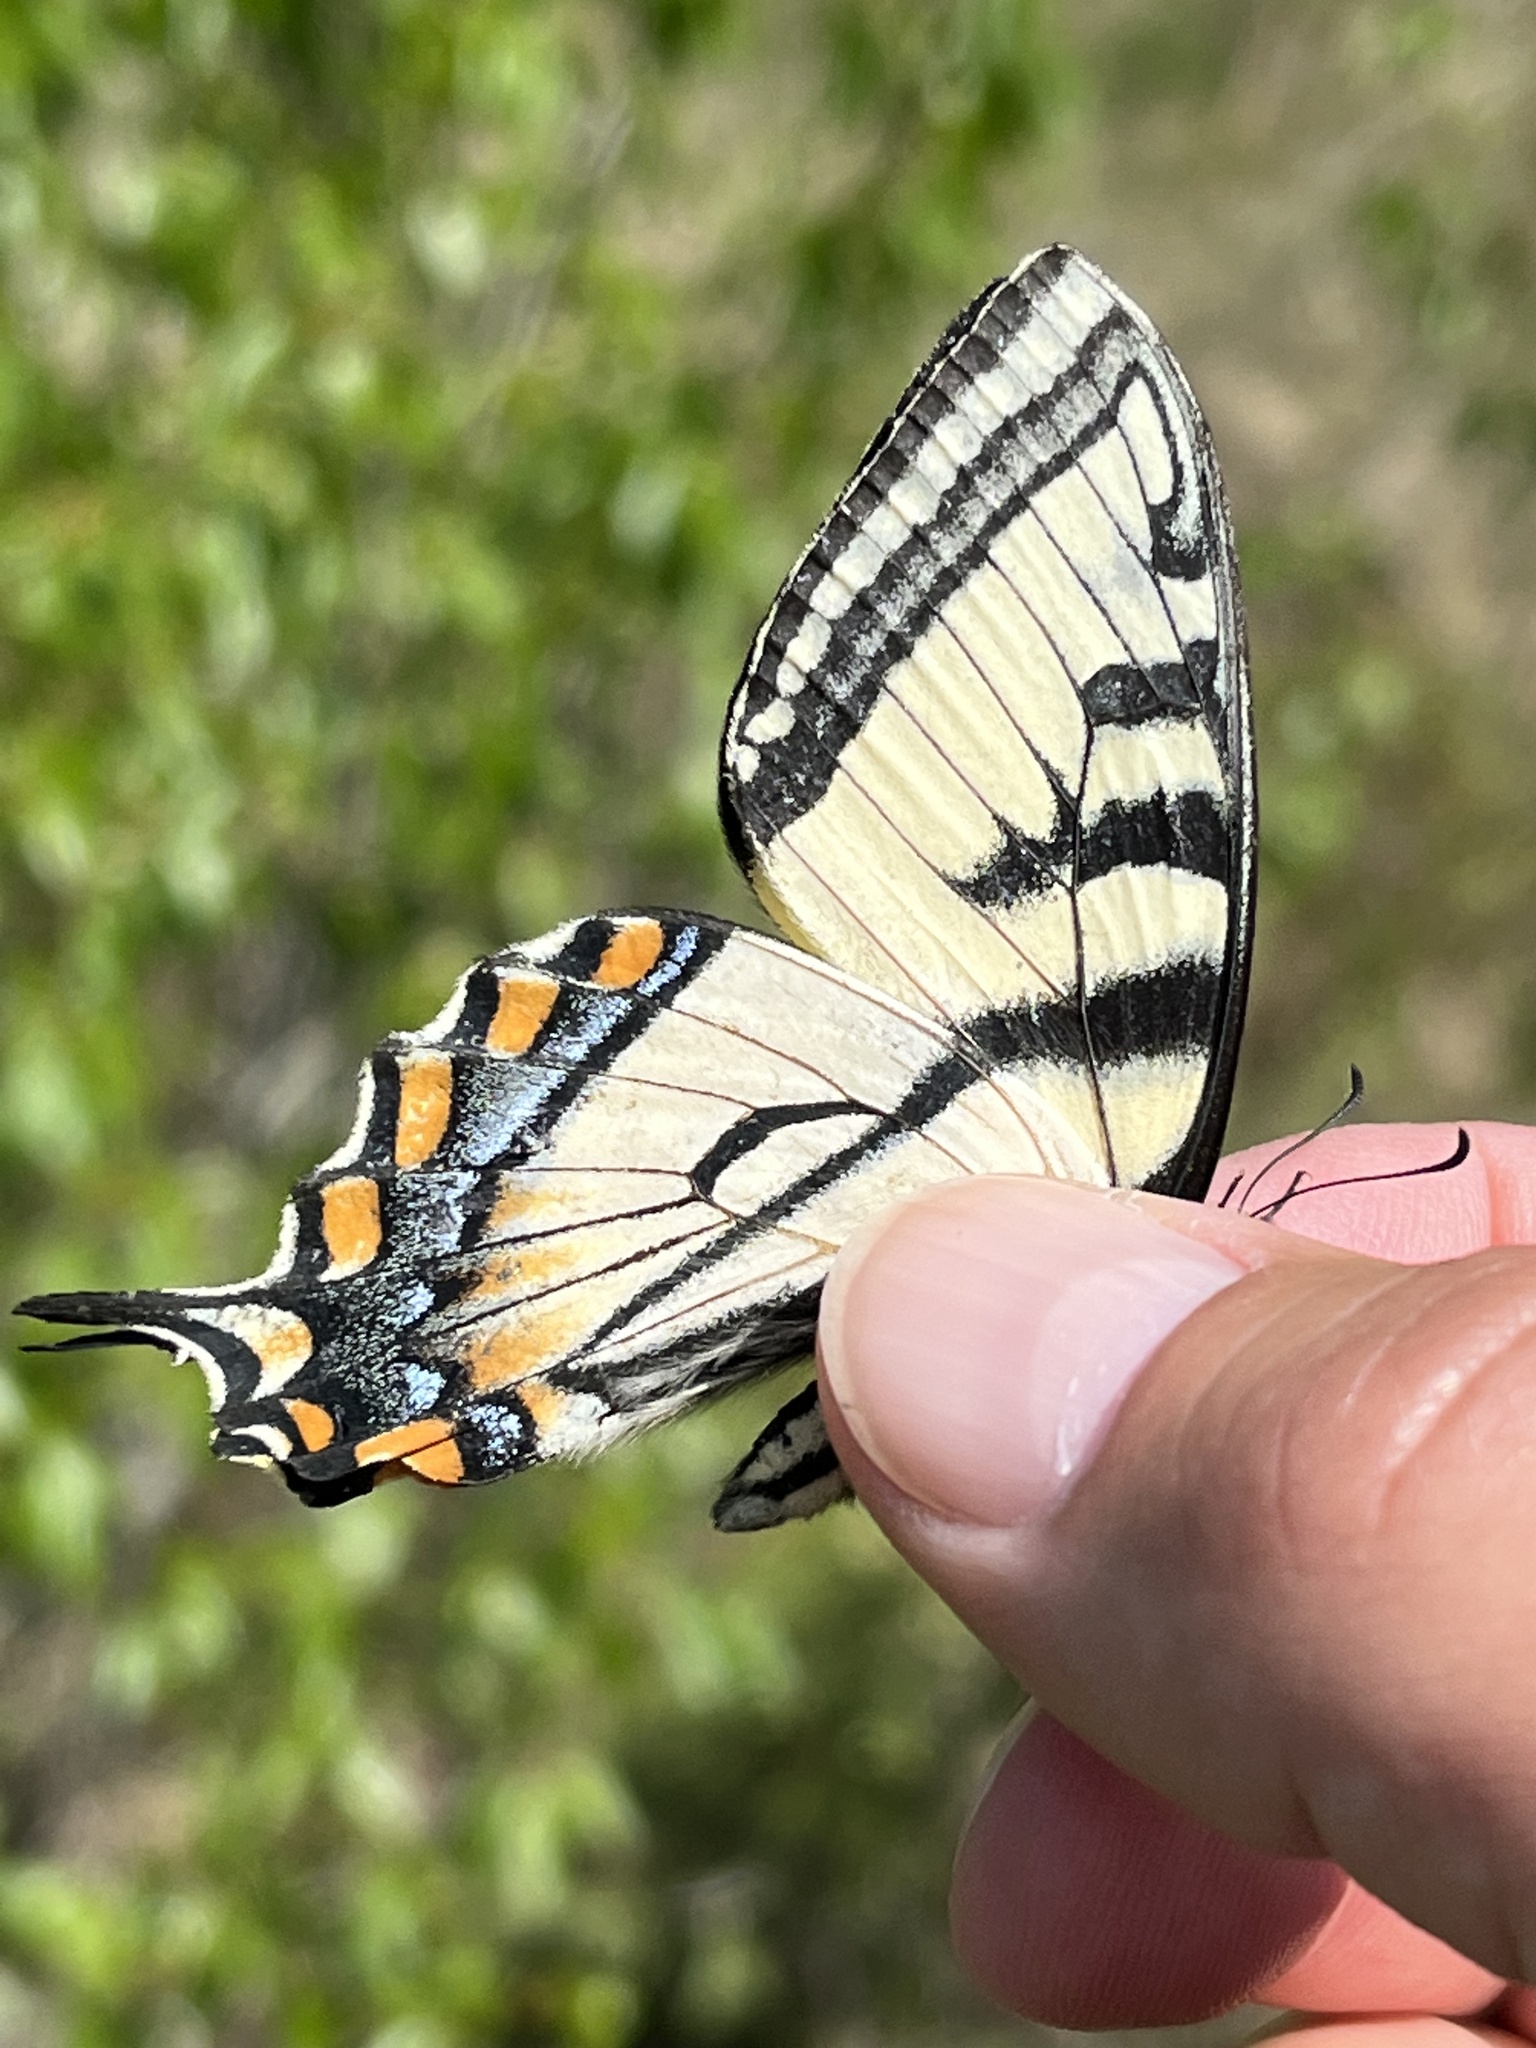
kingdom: Animalia
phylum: Arthropoda
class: Insecta
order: Lepidoptera
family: Papilionidae
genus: Papilio
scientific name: Papilio canadensis
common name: Canadian tiger swallowtail
